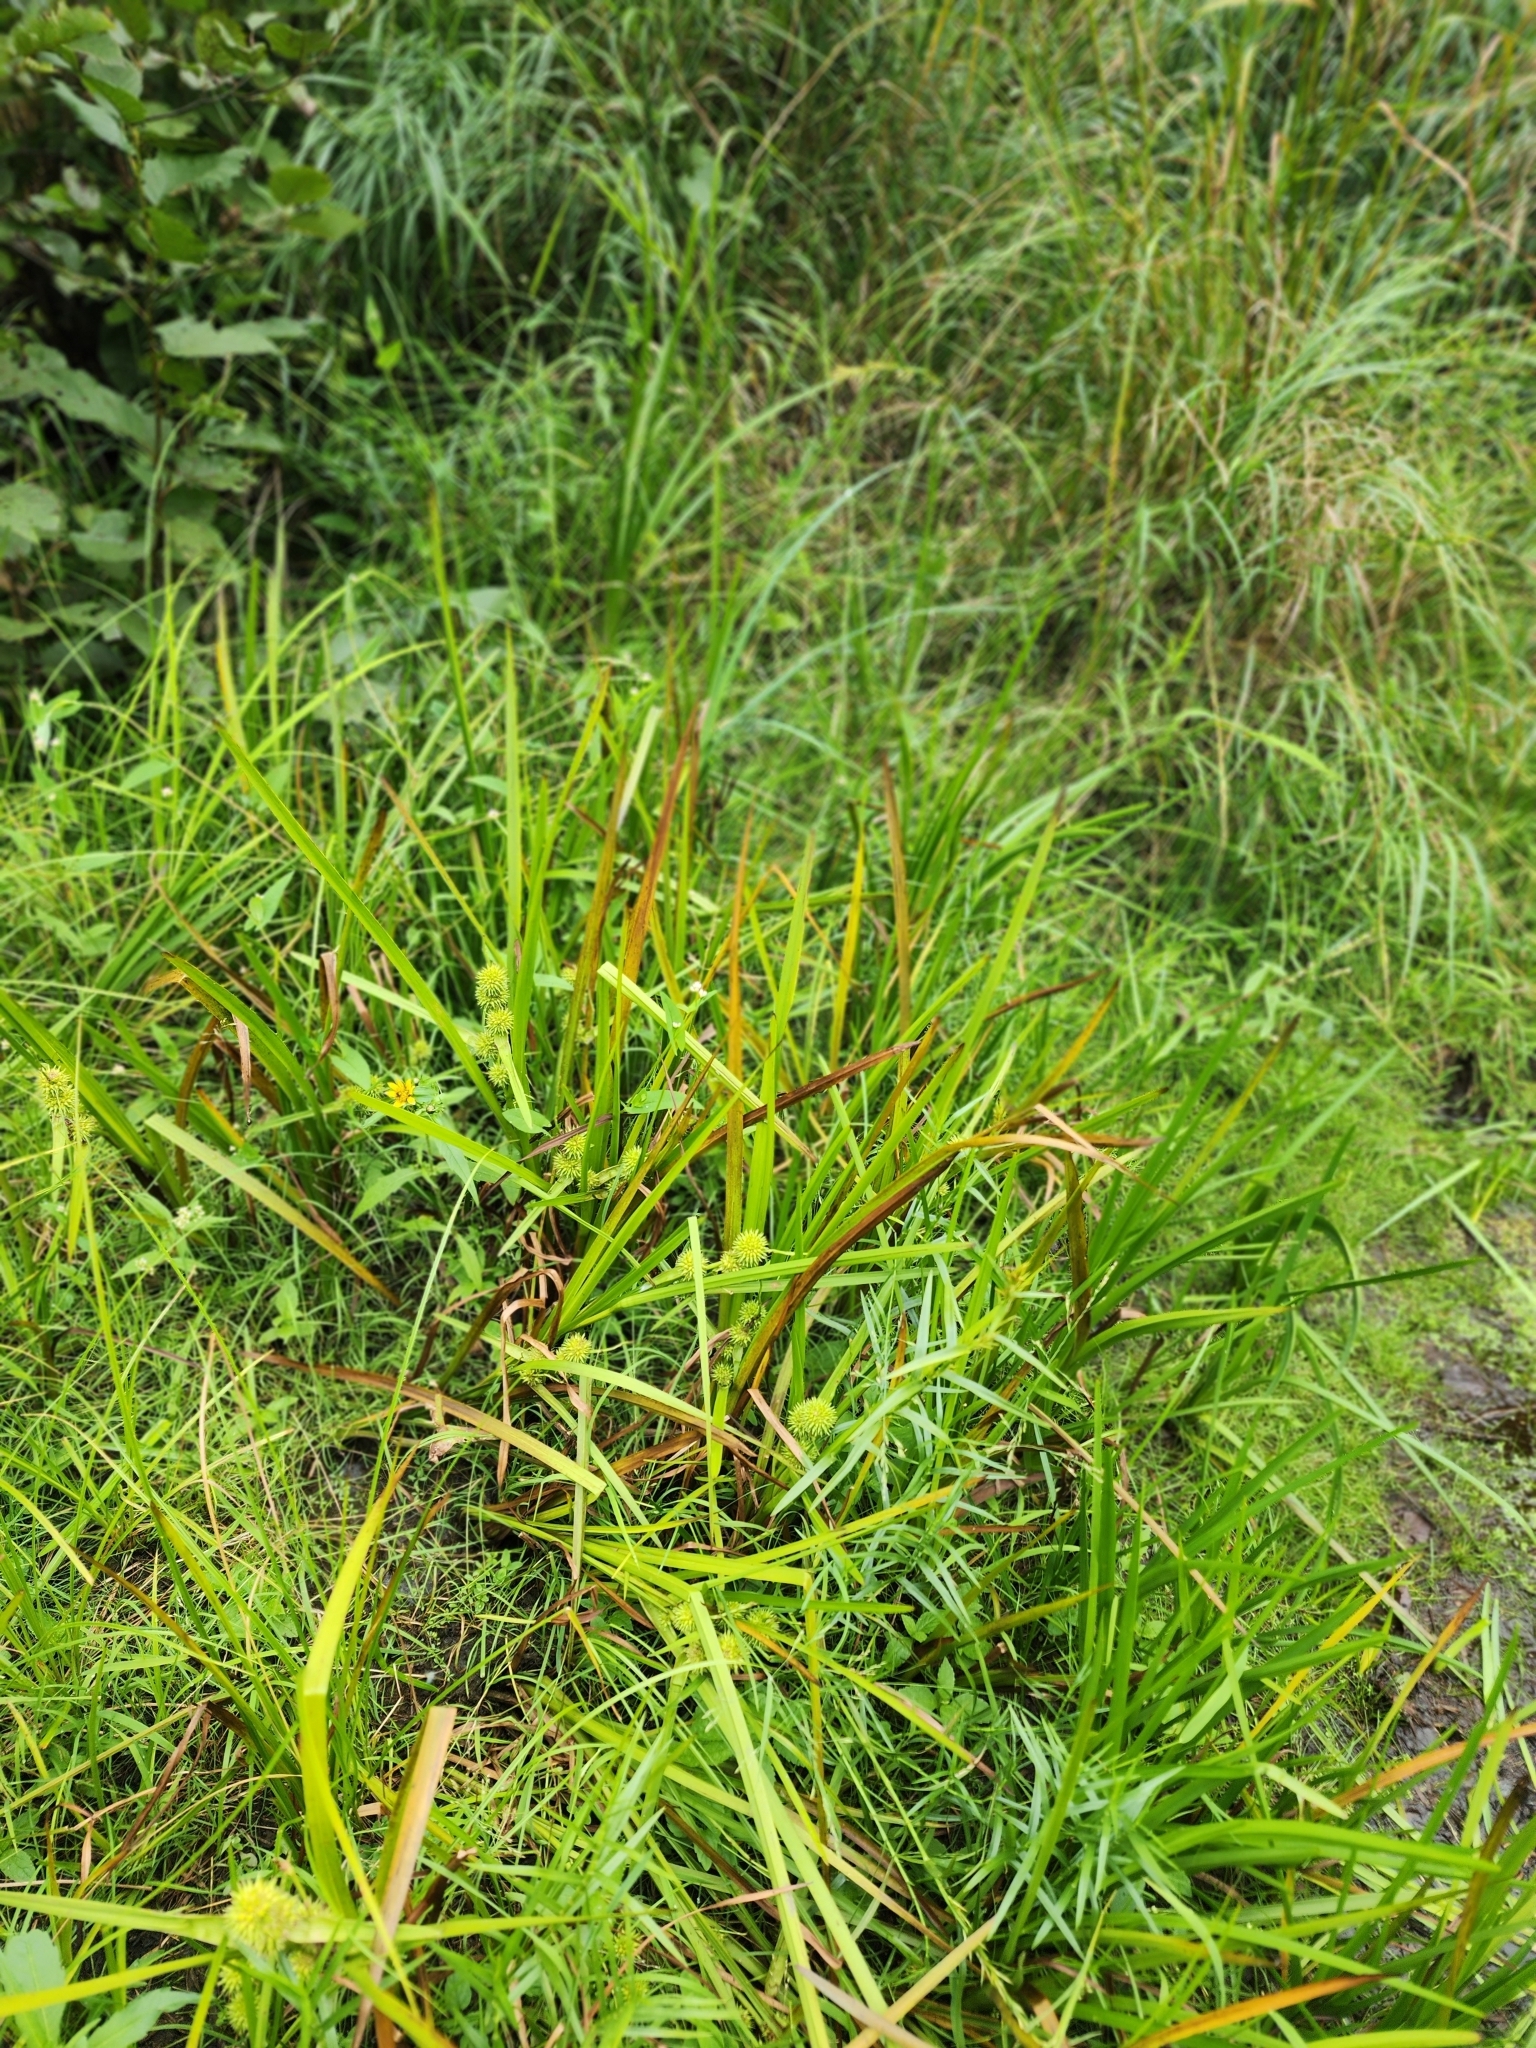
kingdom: Plantae
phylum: Tracheophyta
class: Liliopsida
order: Poales
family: Typhaceae
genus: Sparganium
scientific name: Sparganium americanum
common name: American burreed
